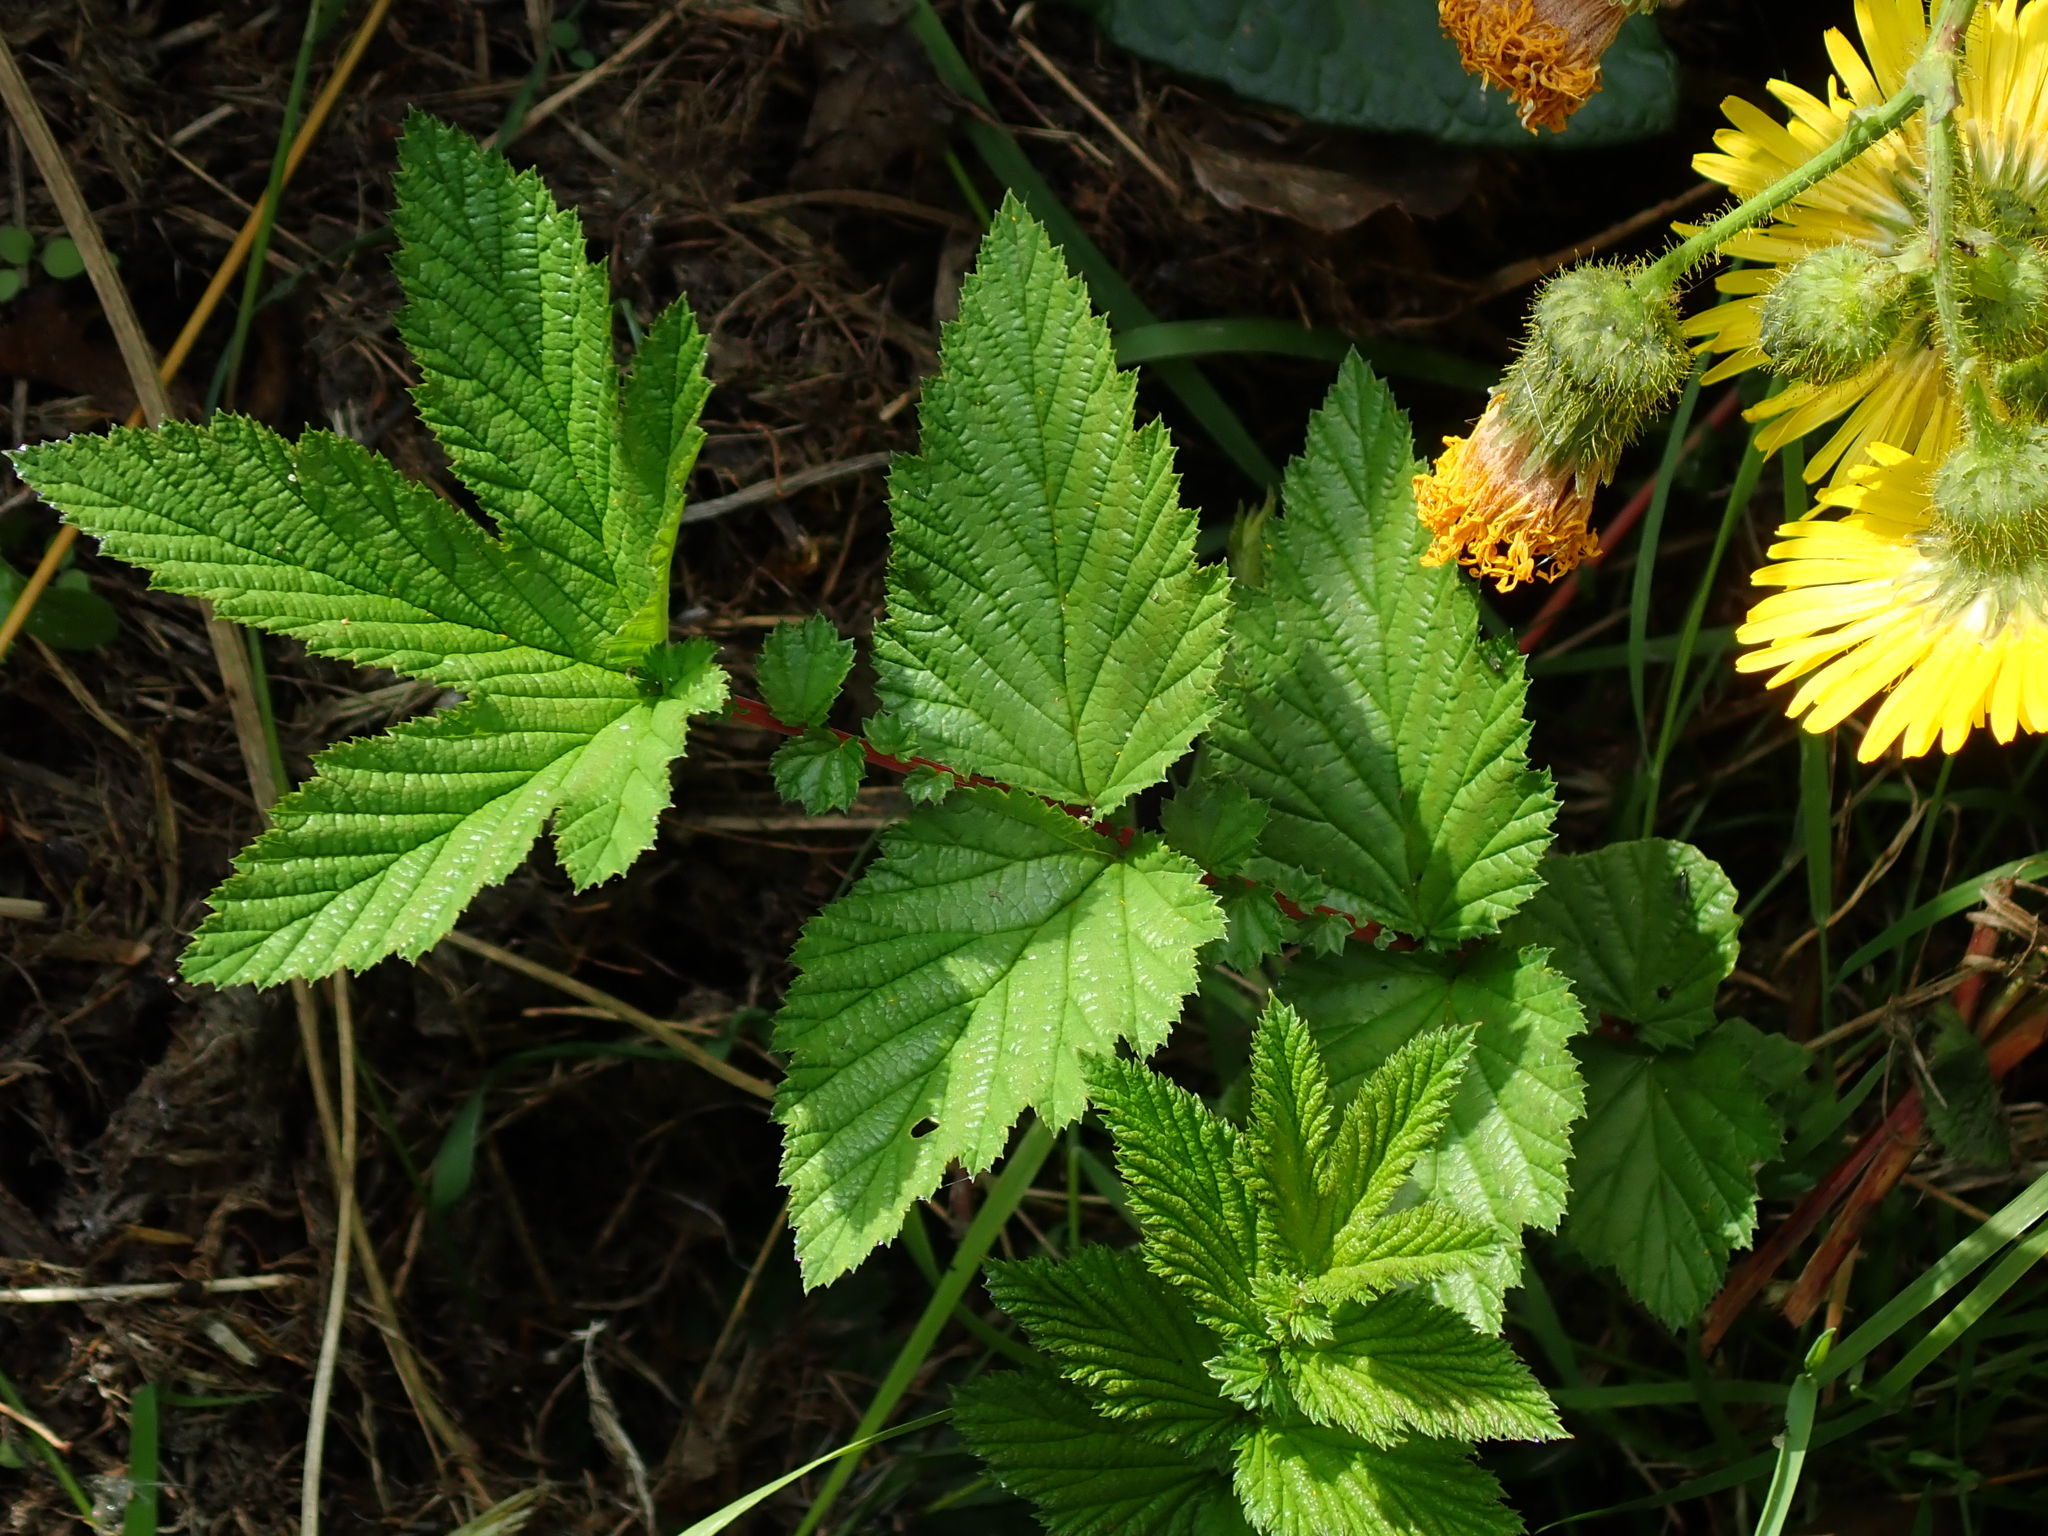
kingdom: Plantae
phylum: Tracheophyta
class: Magnoliopsida
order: Rosales
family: Rosaceae
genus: Filipendula
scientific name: Filipendula ulmaria
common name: Meadowsweet
